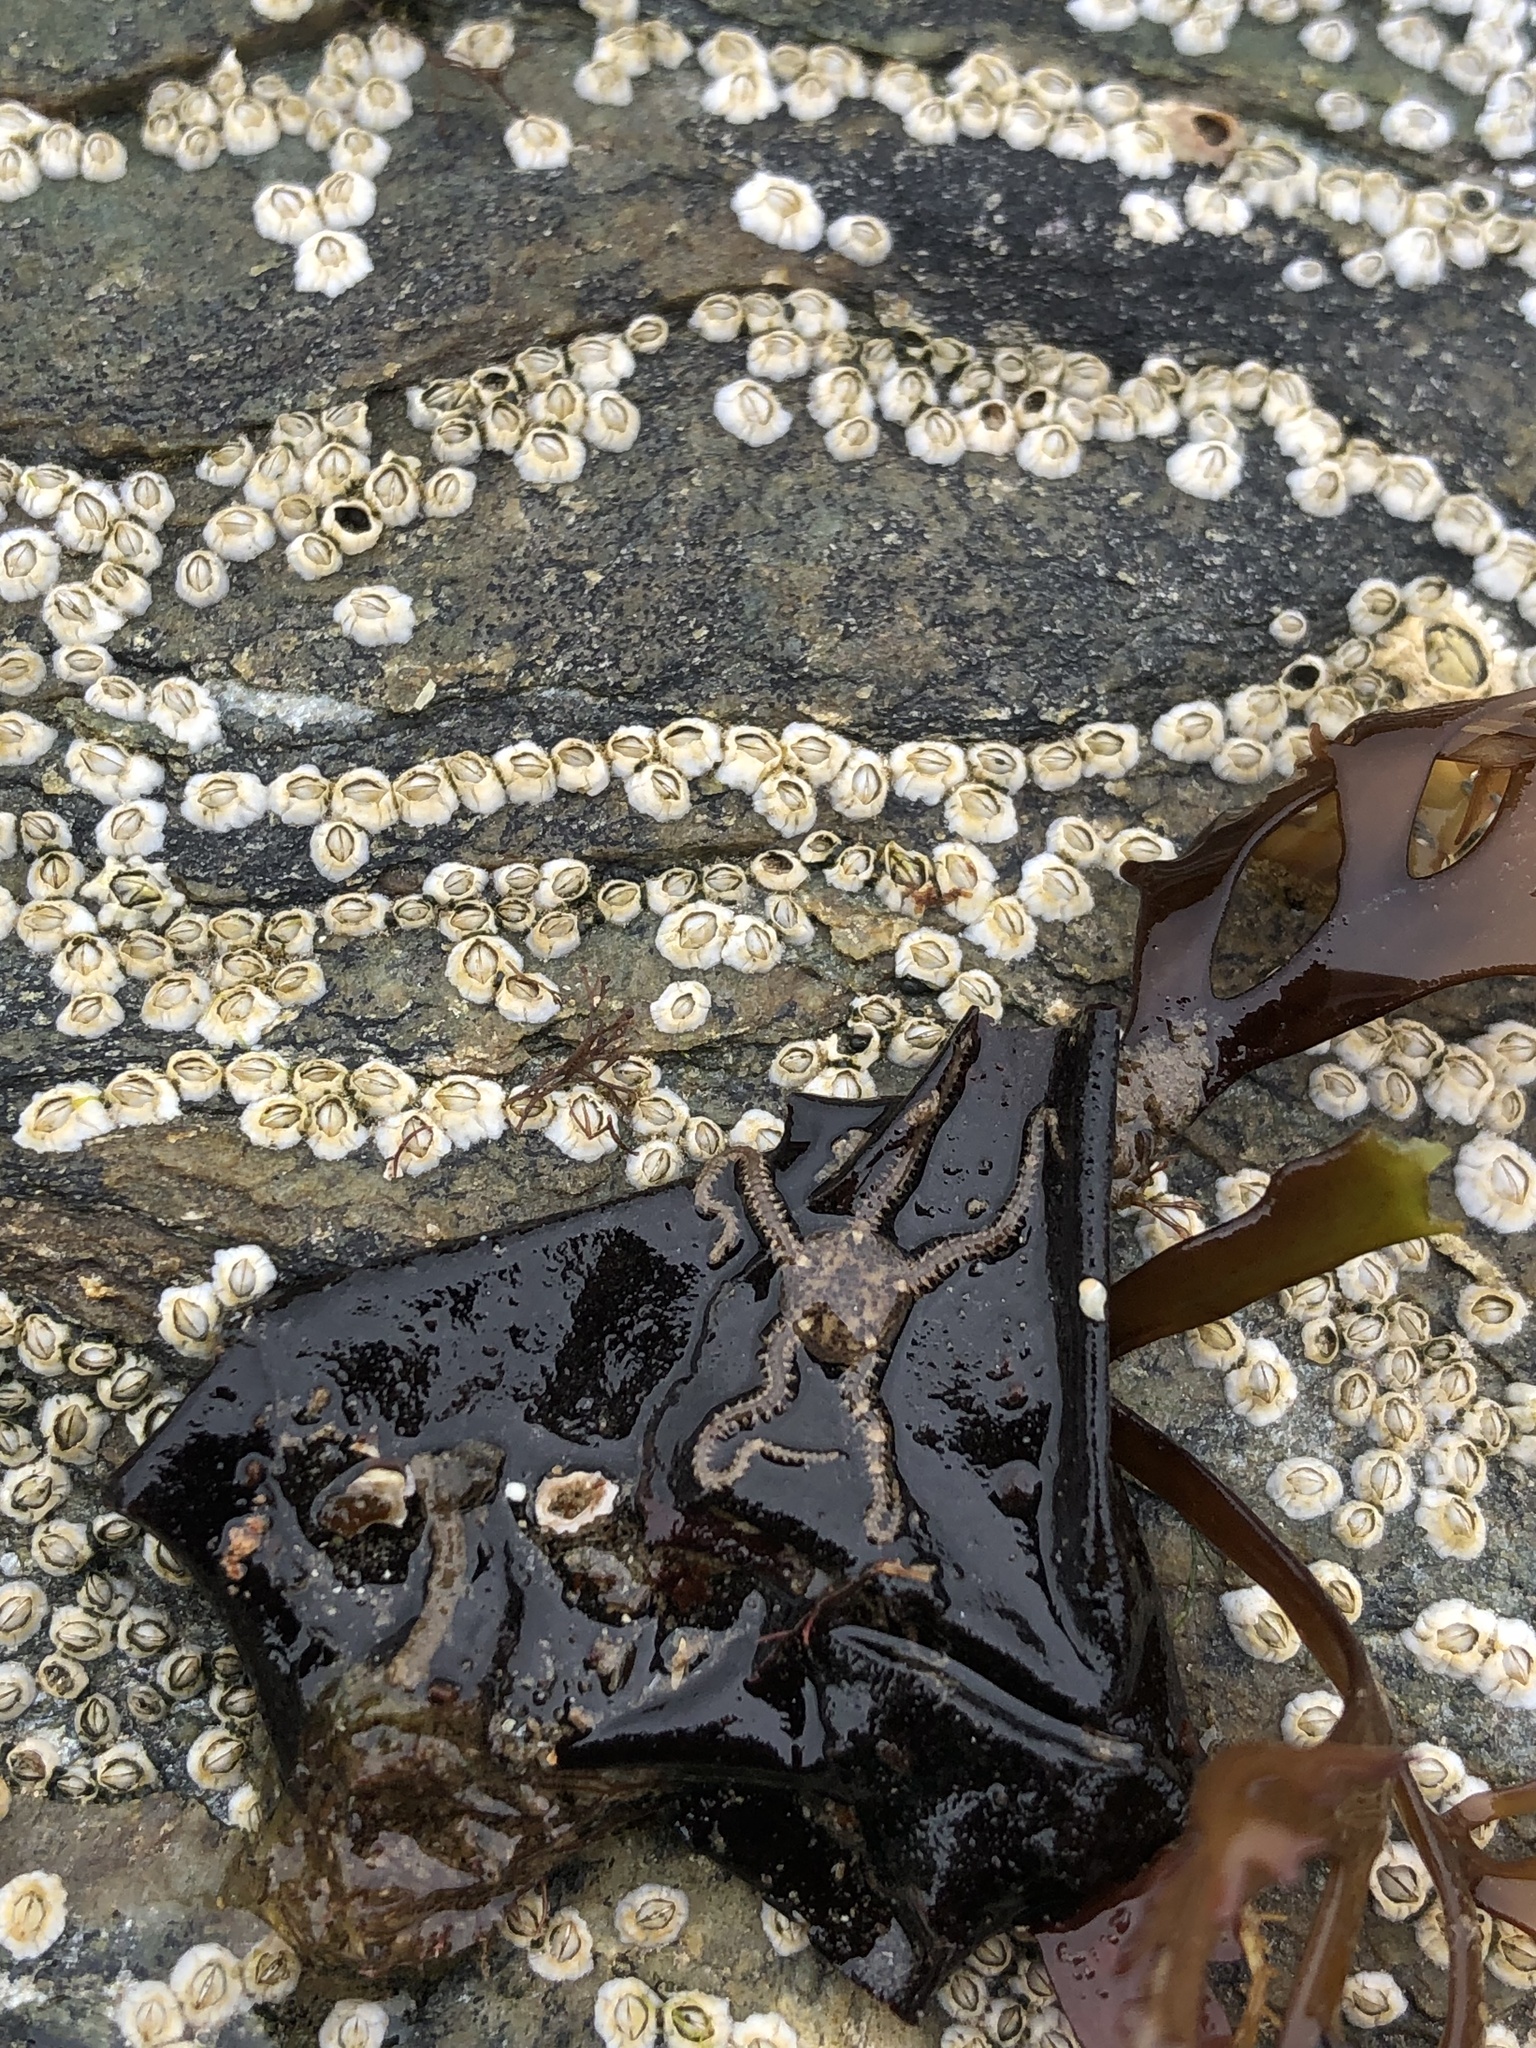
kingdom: Animalia
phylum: Echinodermata
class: Ophiuroidea
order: Amphilepidida
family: Amphiuridae
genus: Amphipholis
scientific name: Amphipholis squamata
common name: Brooding snake star
